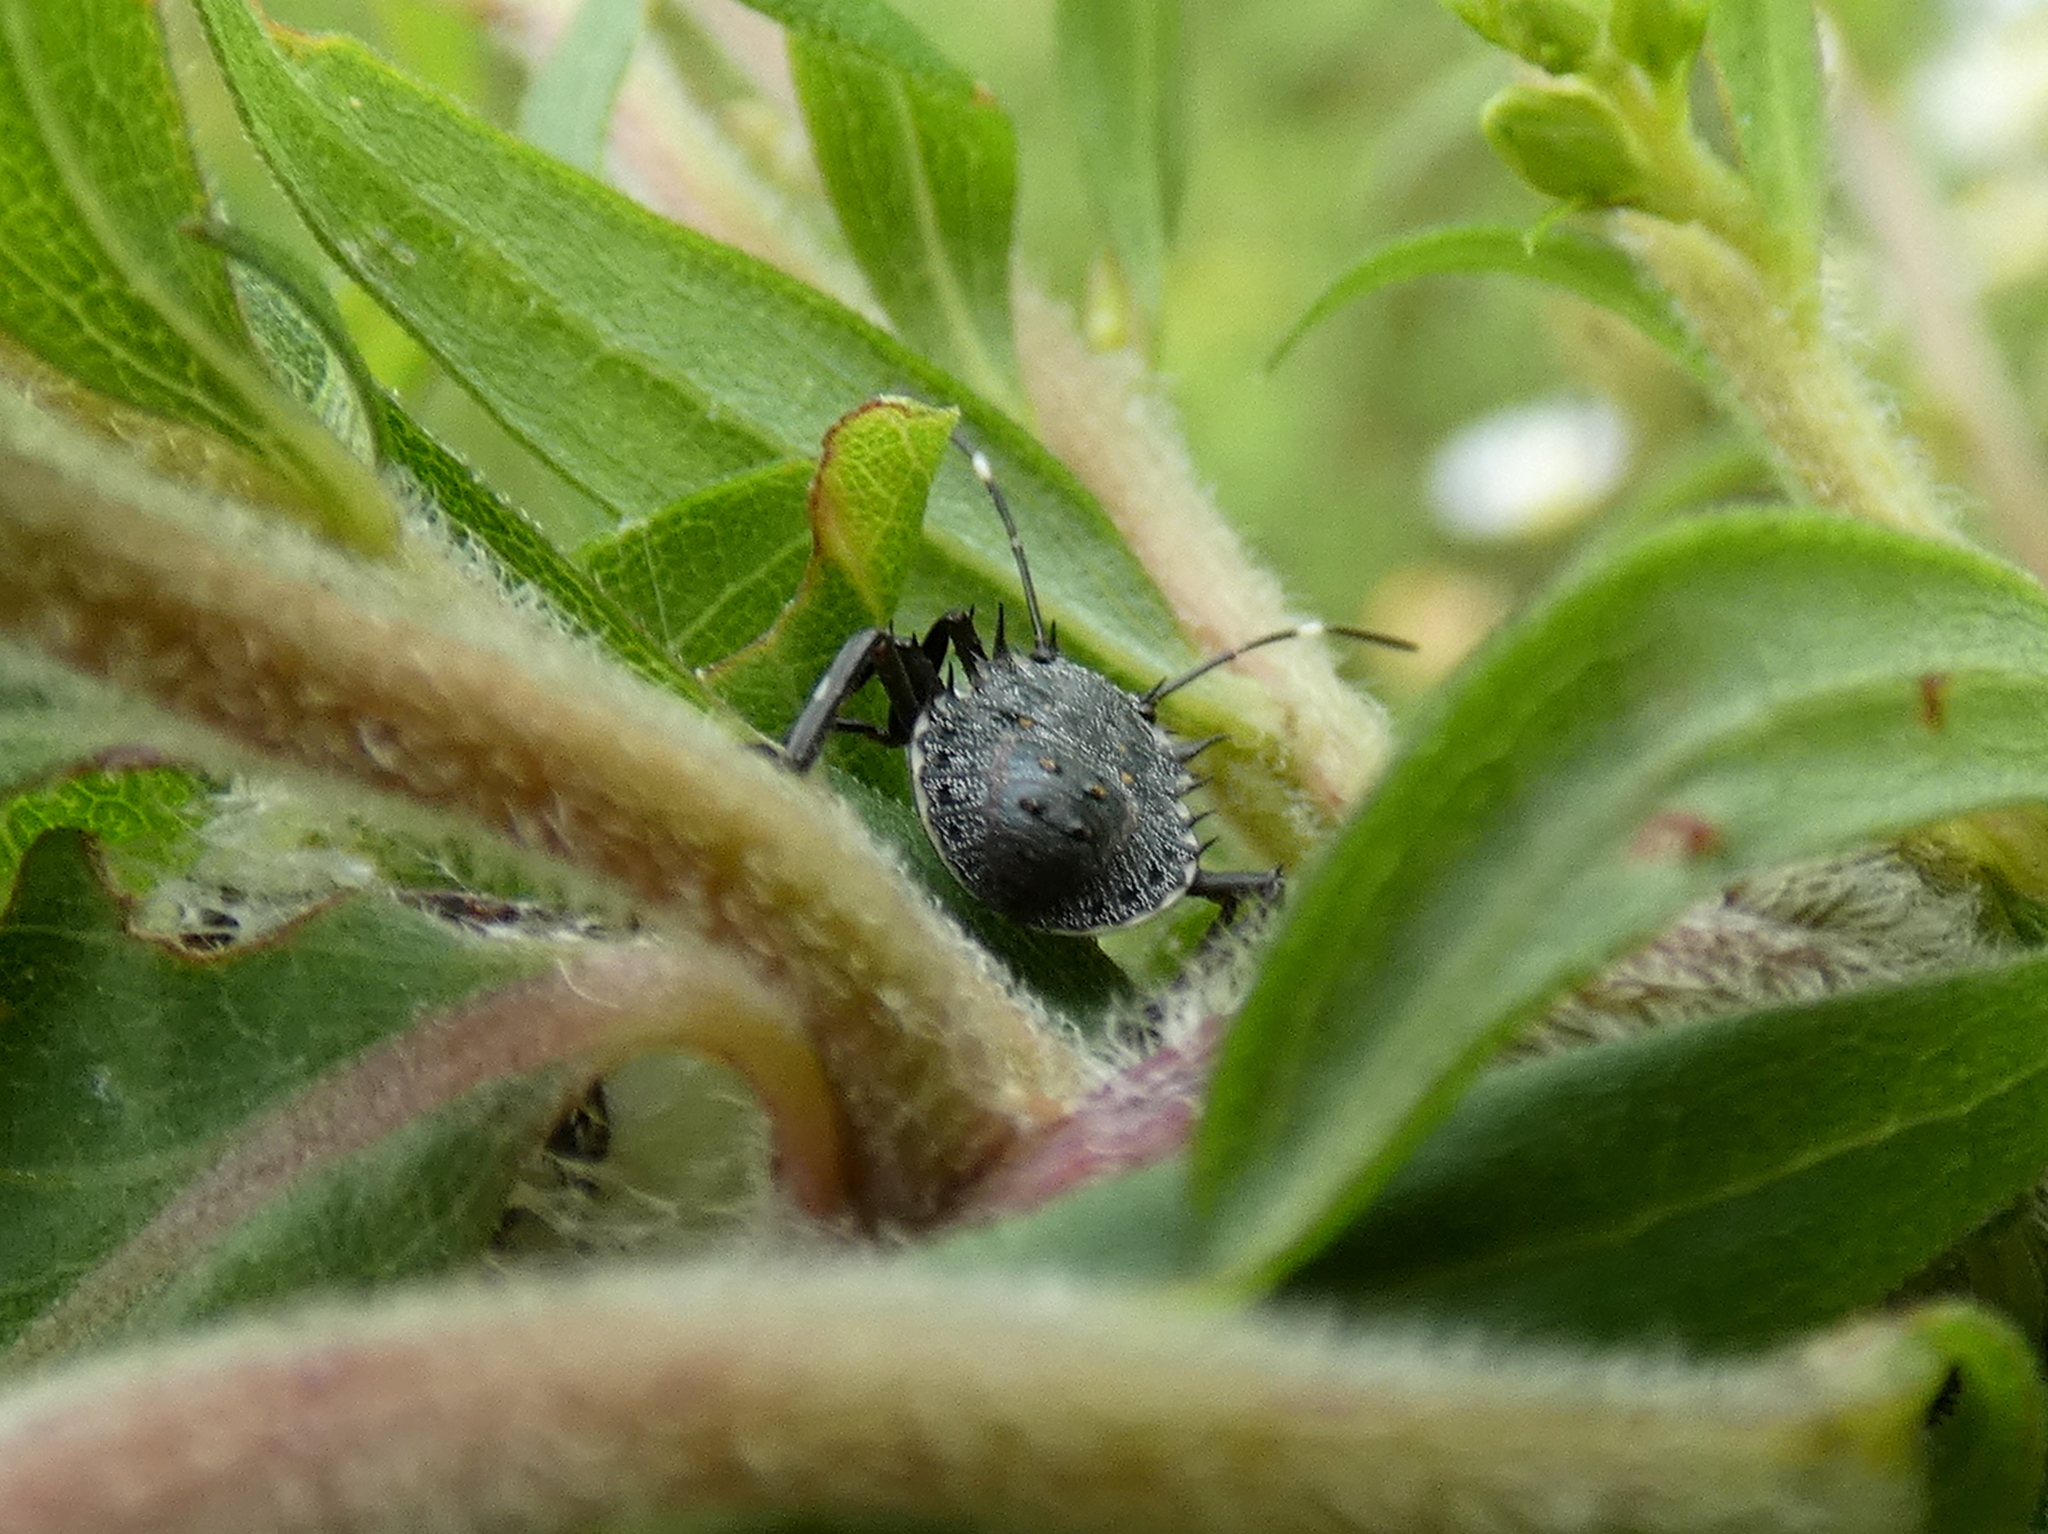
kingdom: Animalia
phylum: Arthropoda
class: Insecta
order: Hemiptera
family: Pentatomidae
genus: Halyomorpha
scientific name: Halyomorpha halys
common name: Brown marmorated stink bug
